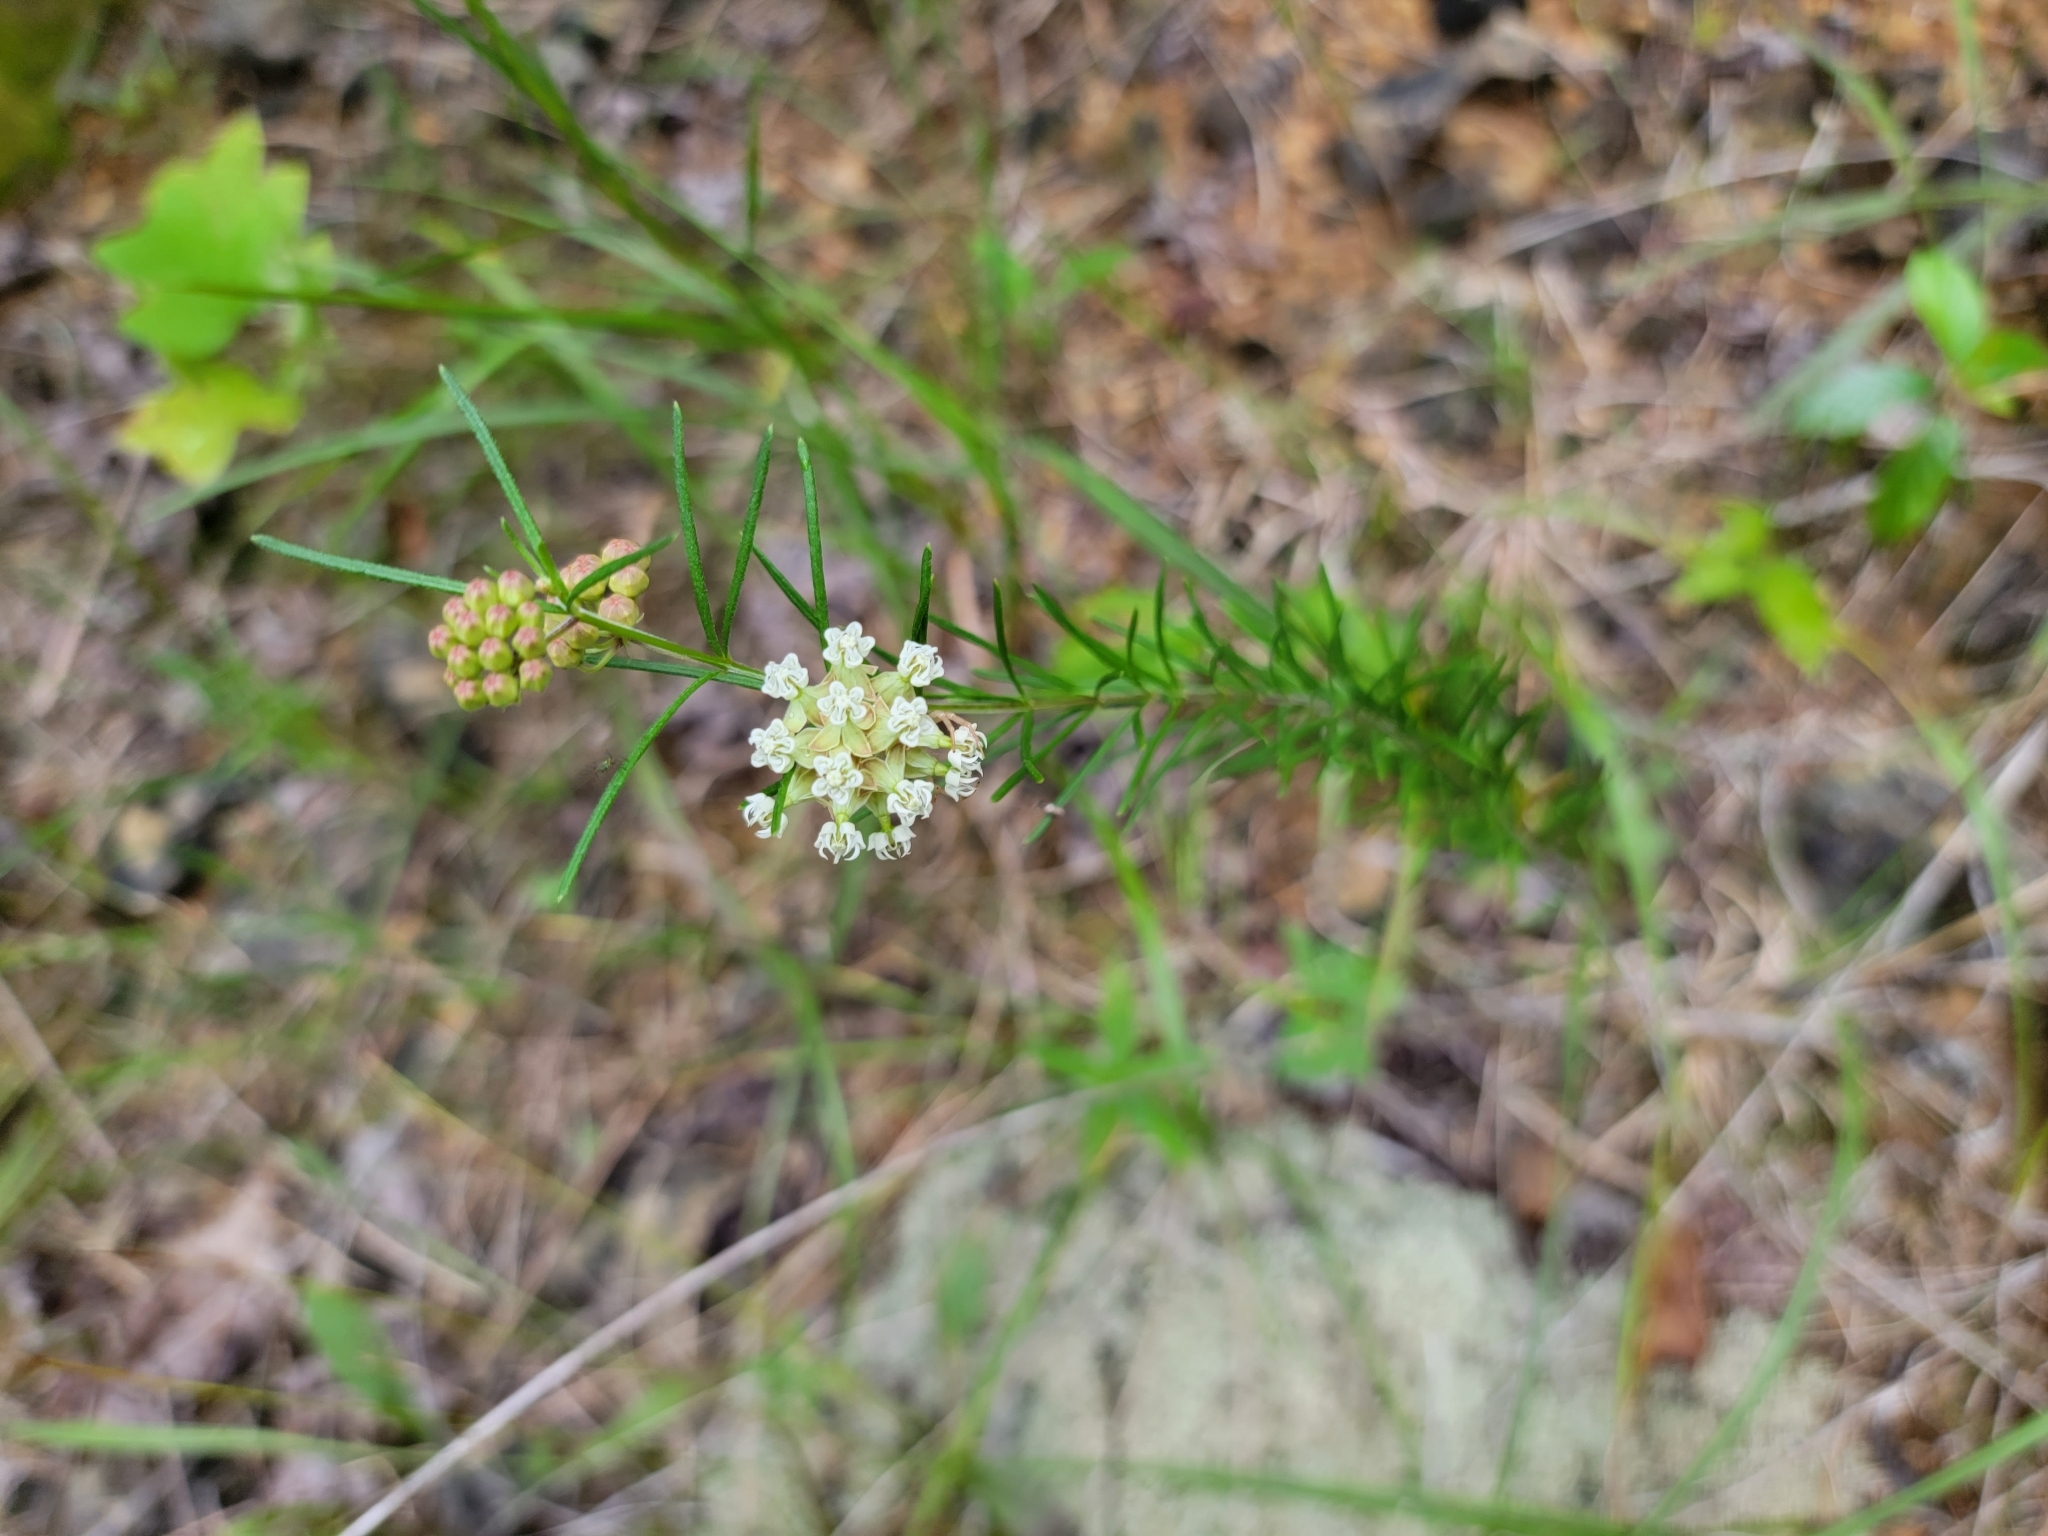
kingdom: Plantae
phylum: Tracheophyta
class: Magnoliopsida
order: Gentianales
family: Apocynaceae
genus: Asclepias
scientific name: Asclepias verticillata
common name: Eastern whorled milkweed
